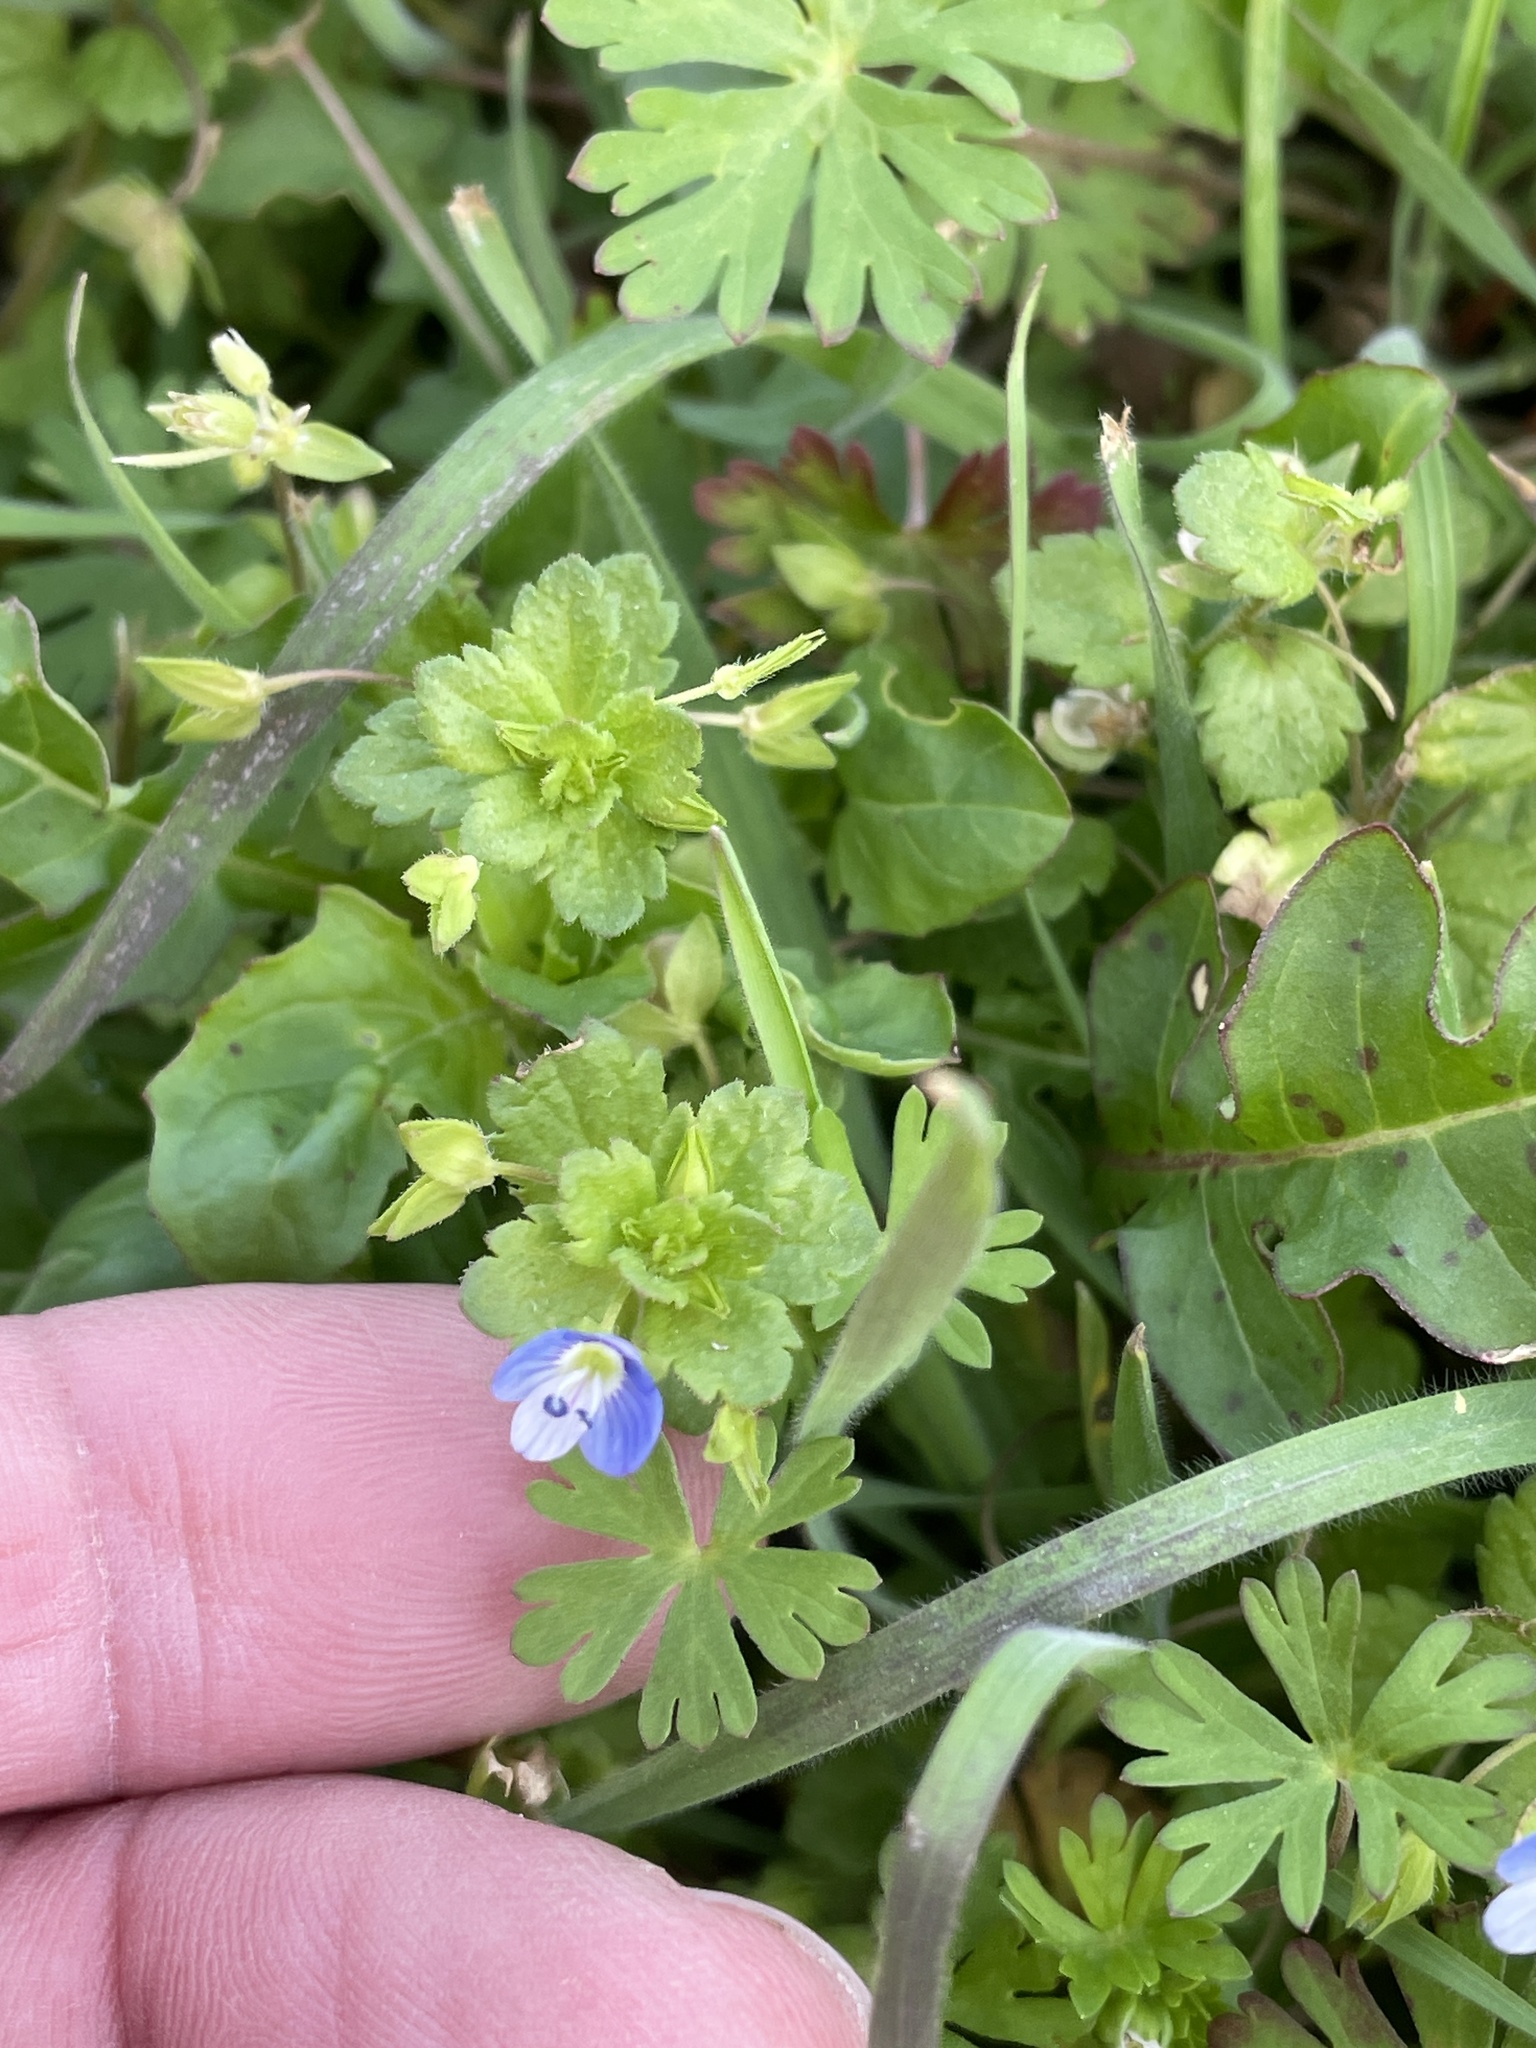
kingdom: Plantae
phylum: Tracheophyta
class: Magnoliopsida
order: Lamiales
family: Plantaginaceae
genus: Veronica
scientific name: Veronica persica
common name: Common field-speedwell
